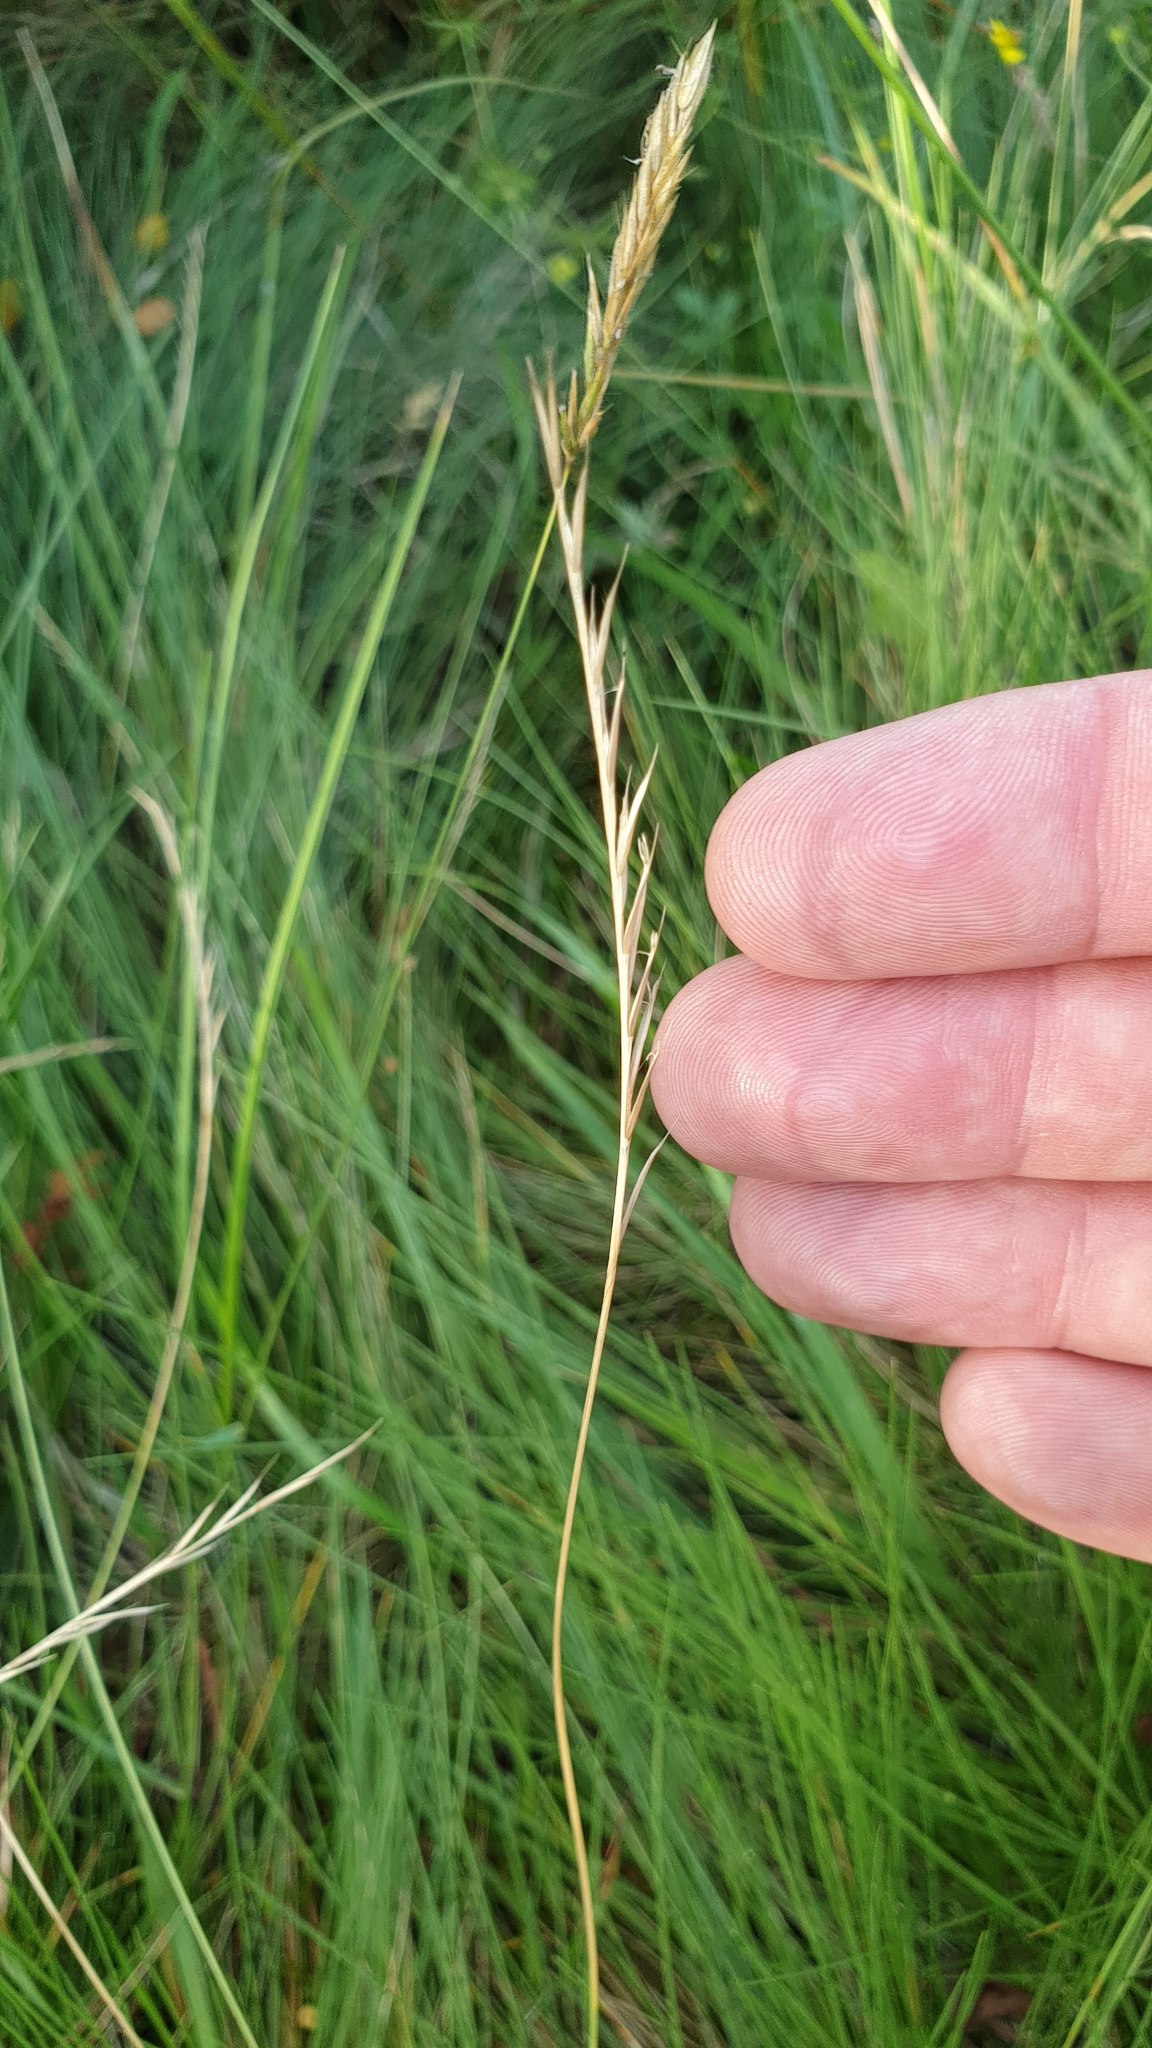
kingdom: Plantae
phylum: Tracheophyta
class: Liliopsida
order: Poales
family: Poaceae
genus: Nardus
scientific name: Nardus stricta
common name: Mat-grass
